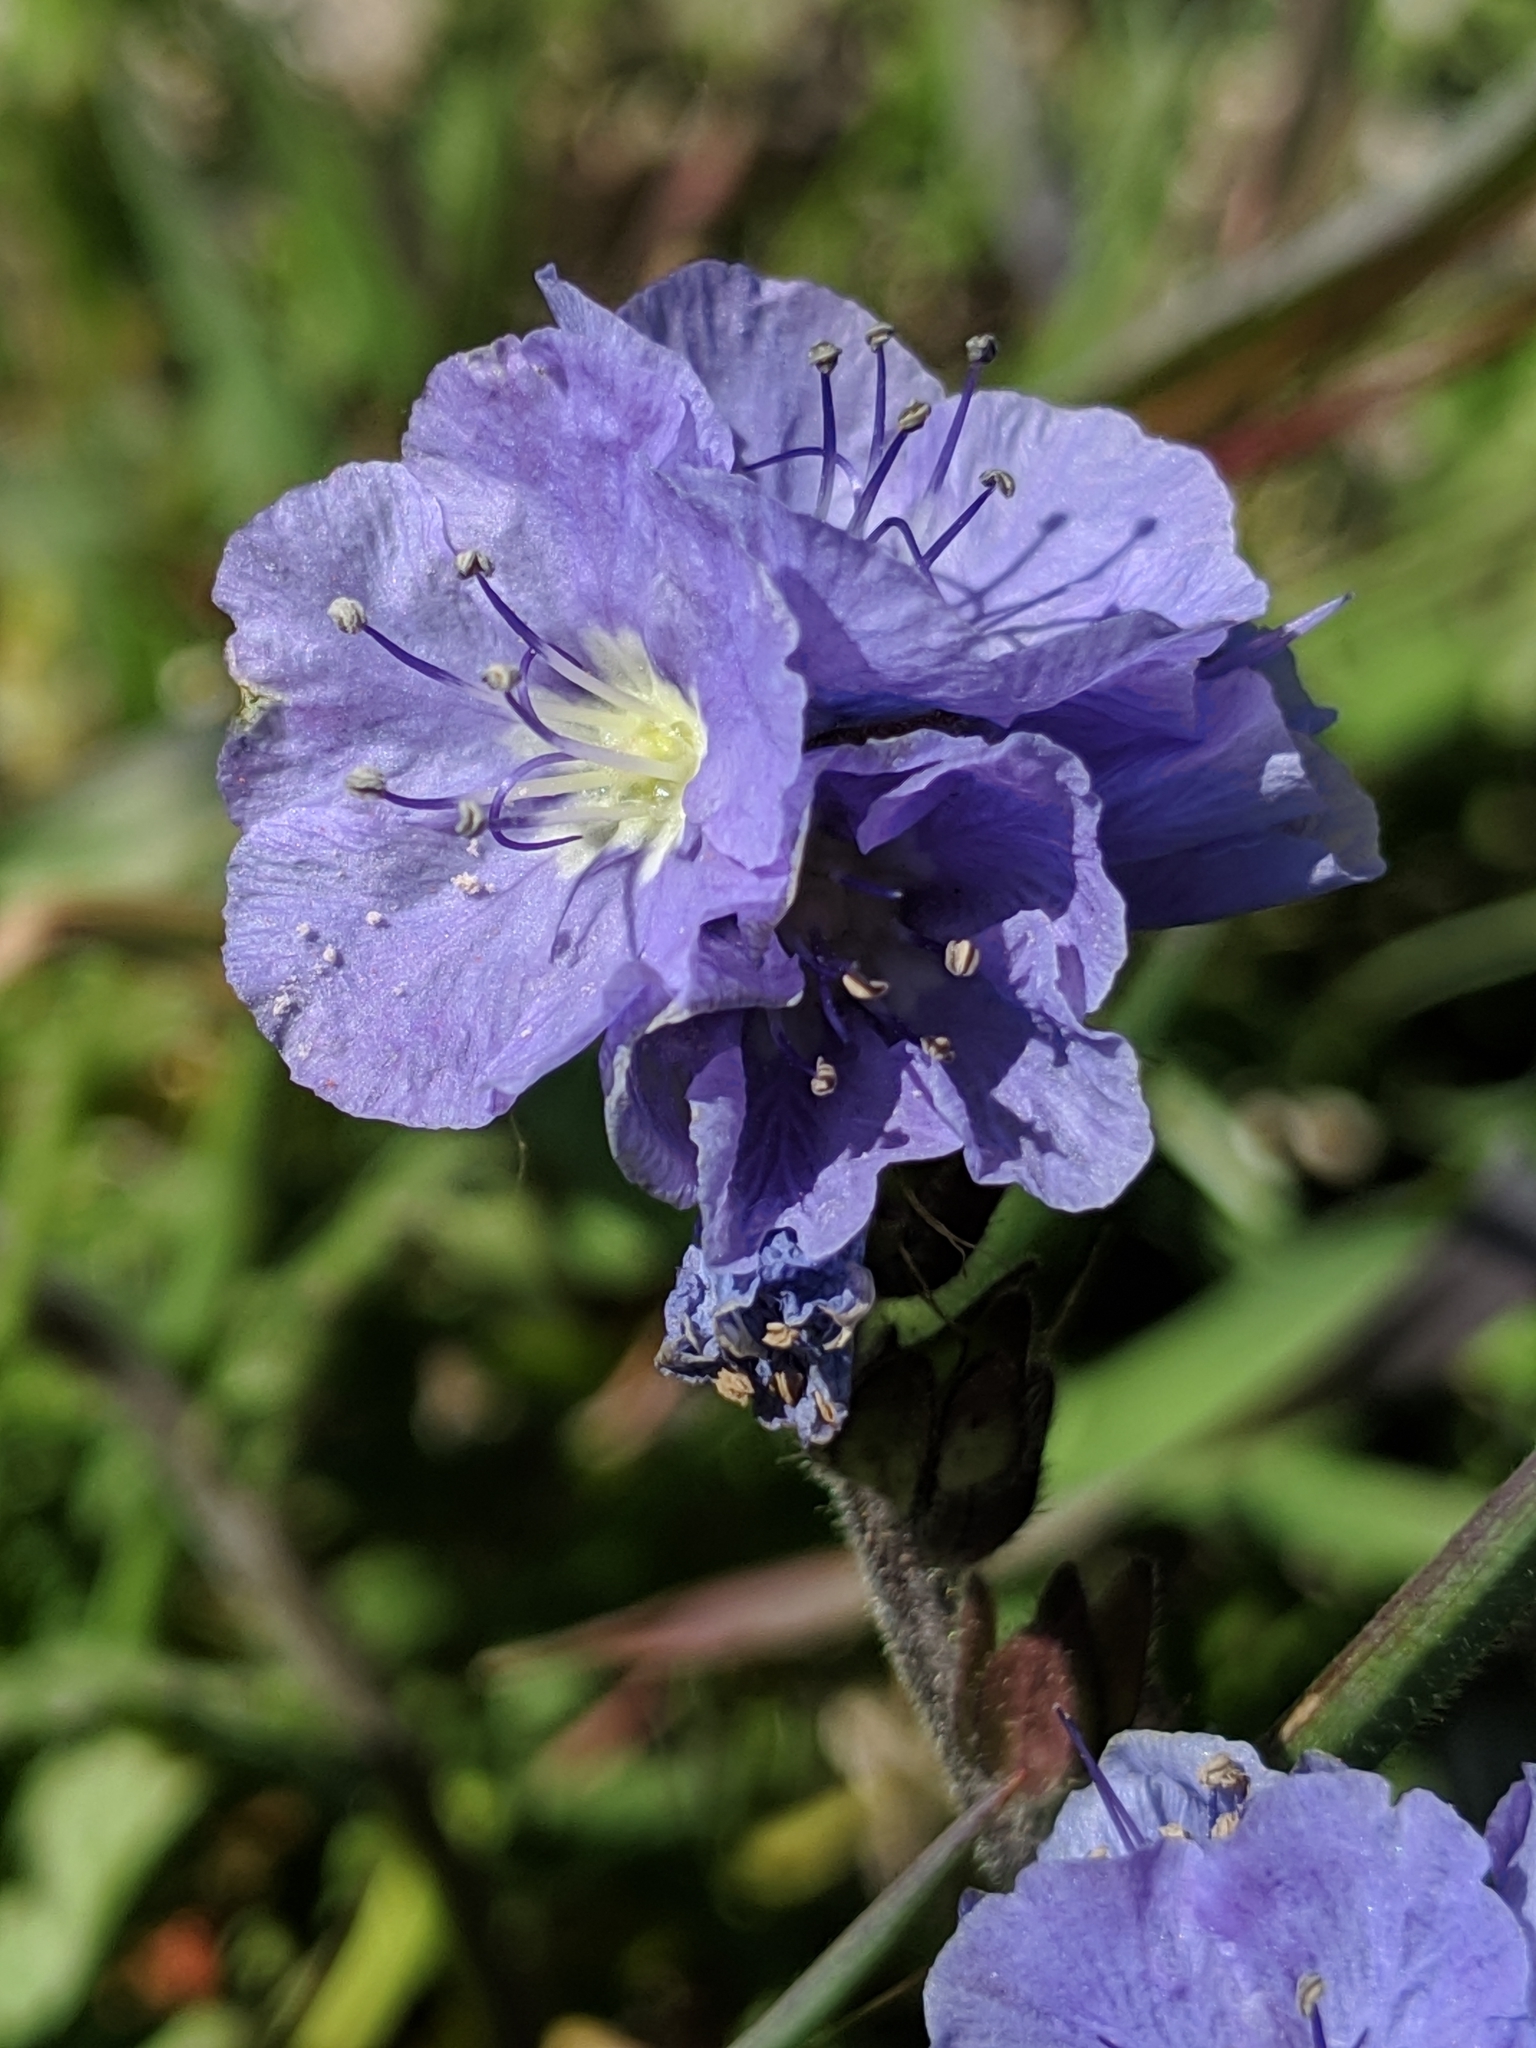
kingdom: Plantae
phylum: Tracheophyta
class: Magnoliopsida
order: Boraginales
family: Hydrophyllaceae
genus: Phacelia
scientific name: Phacelia ciliata
